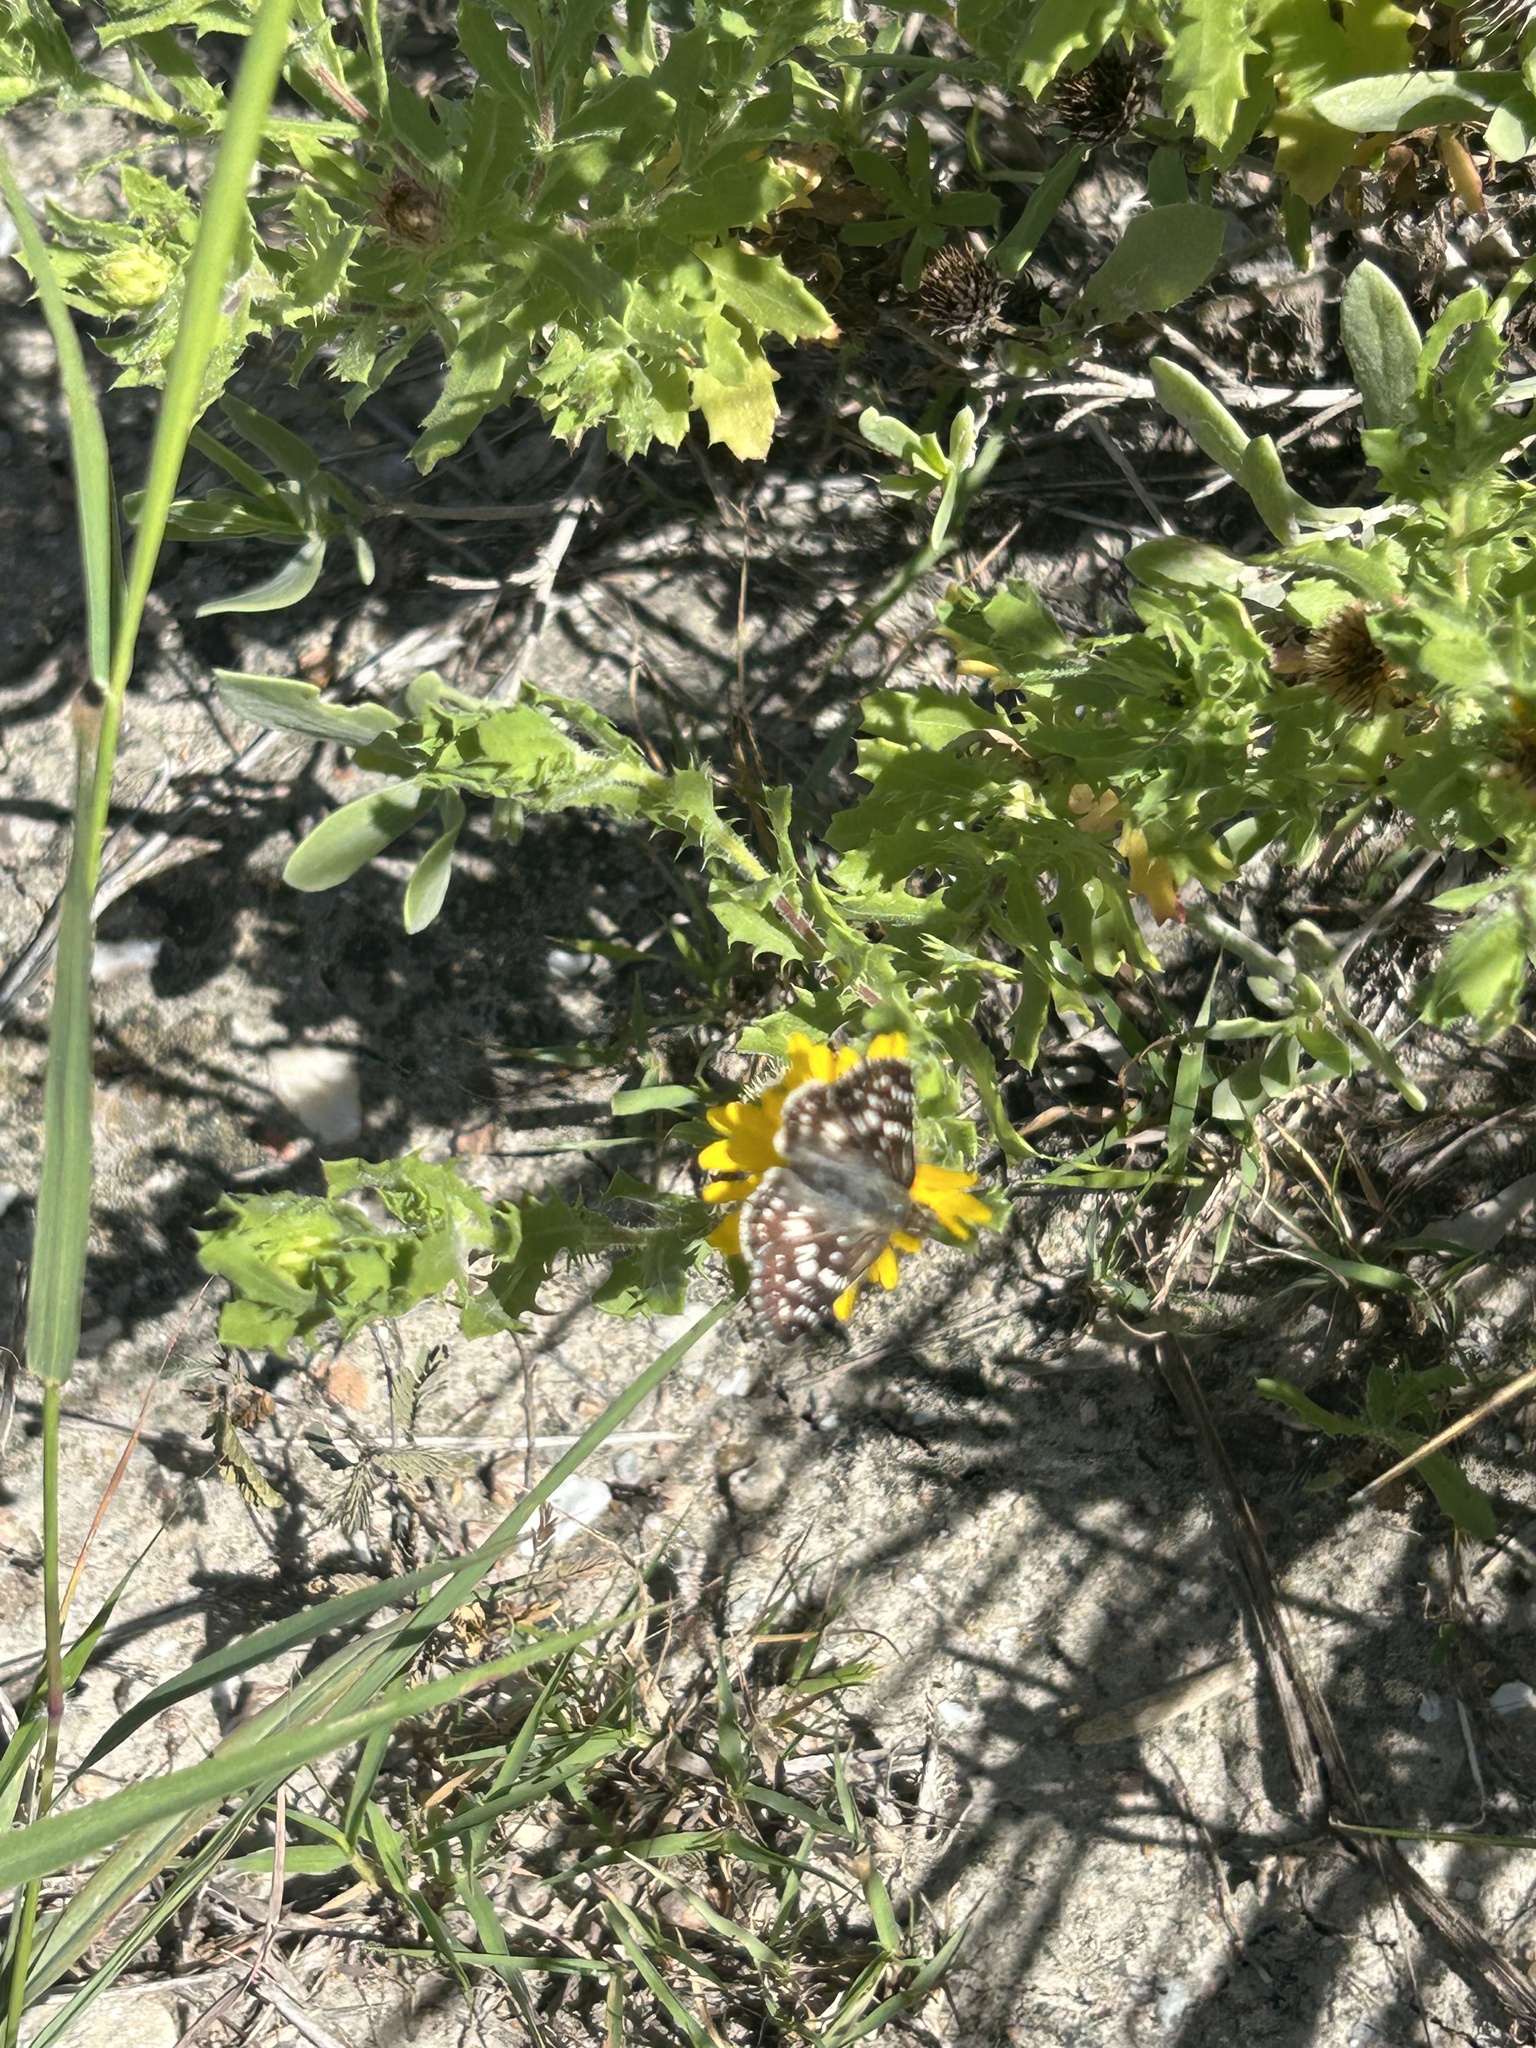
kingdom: Animalia
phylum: Arthropoda
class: Insecta
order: Lepidoptera
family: Hesperiidae
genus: Pyrgus
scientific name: Pyrgus oileus
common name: Tropical checkered-skipper
